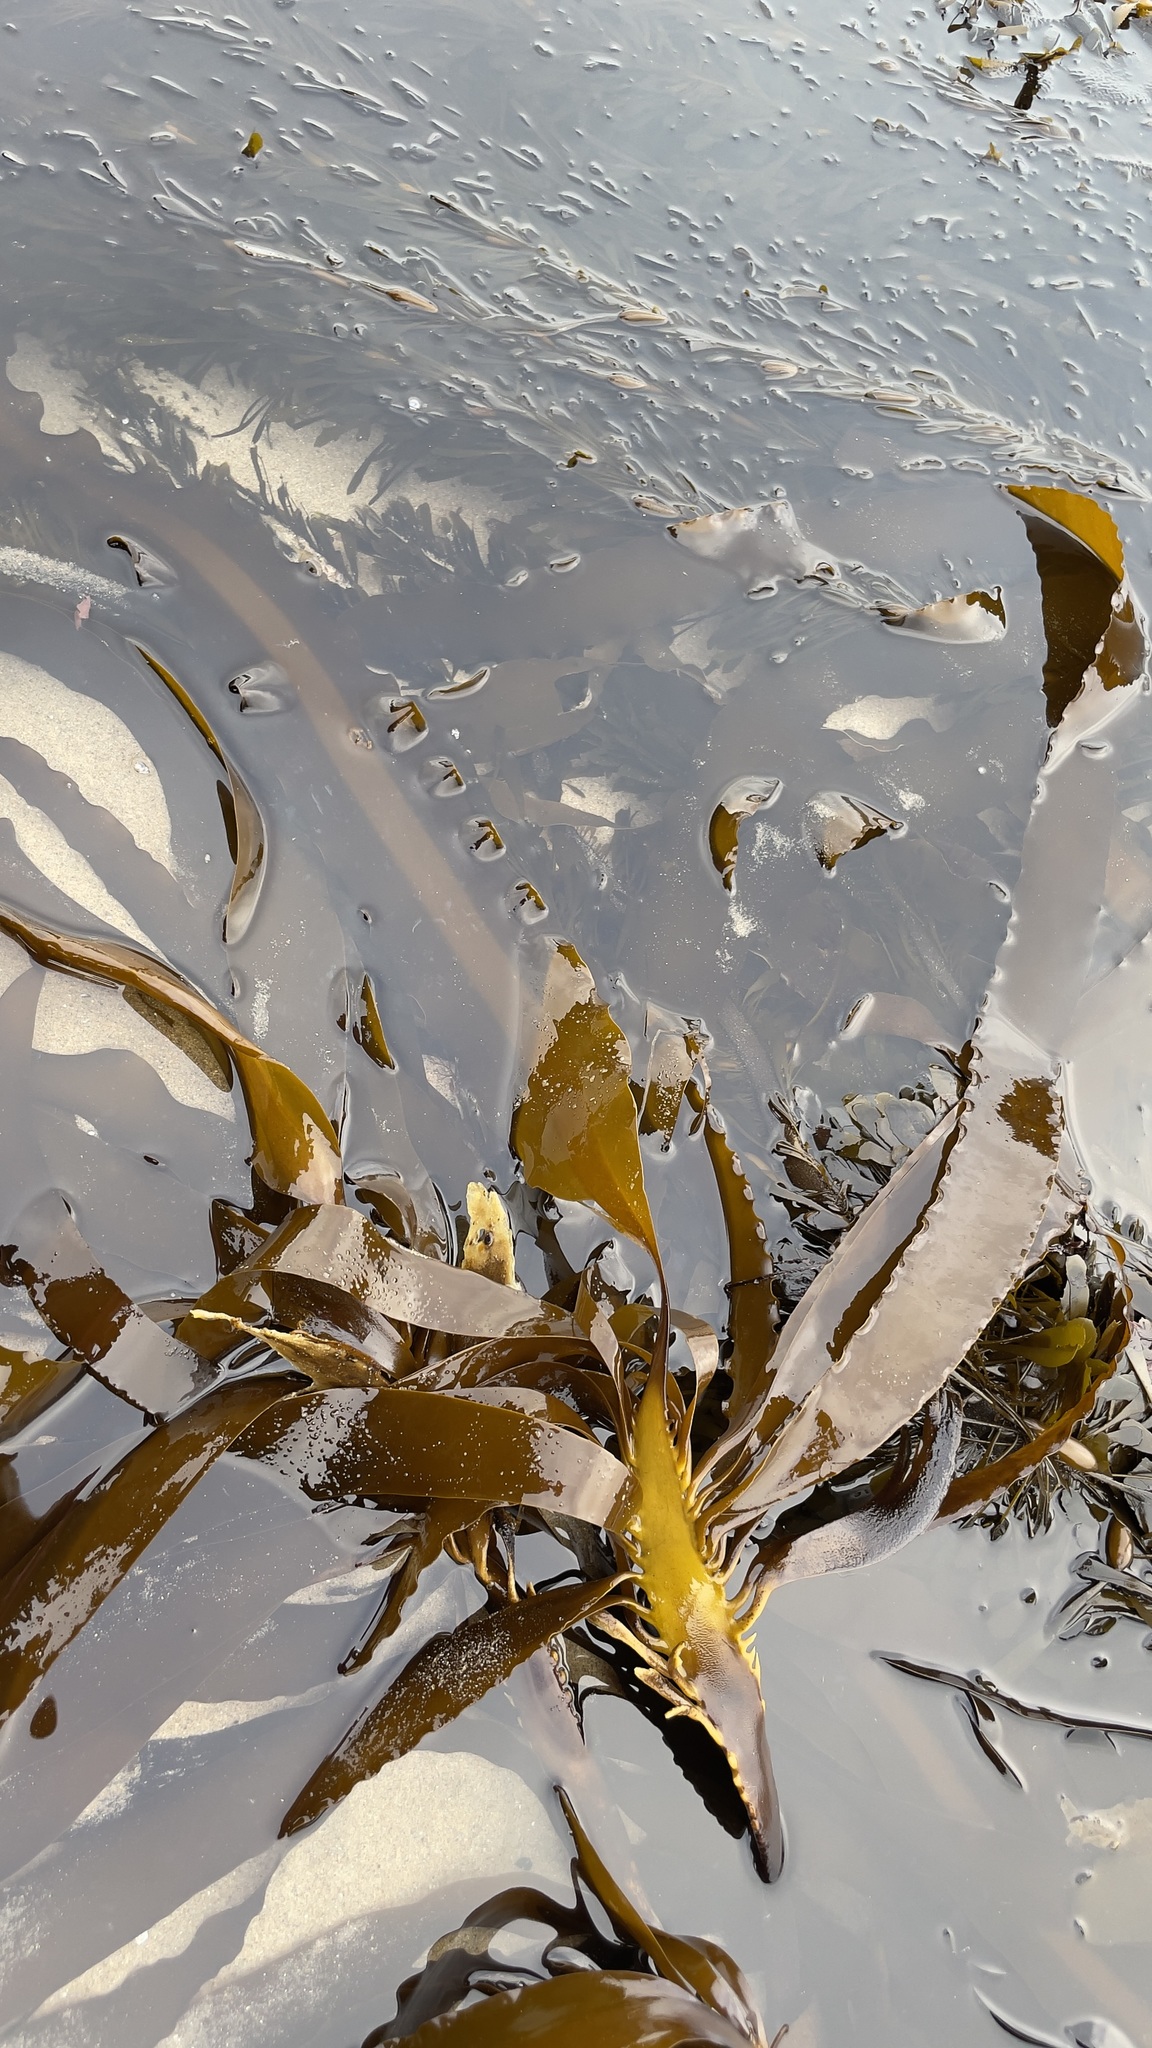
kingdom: Chromista
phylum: Ochrophyta
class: Phaeophyceae
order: Laminariales
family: Alariaceae
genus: Pterygophora
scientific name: Pterygophora californica
